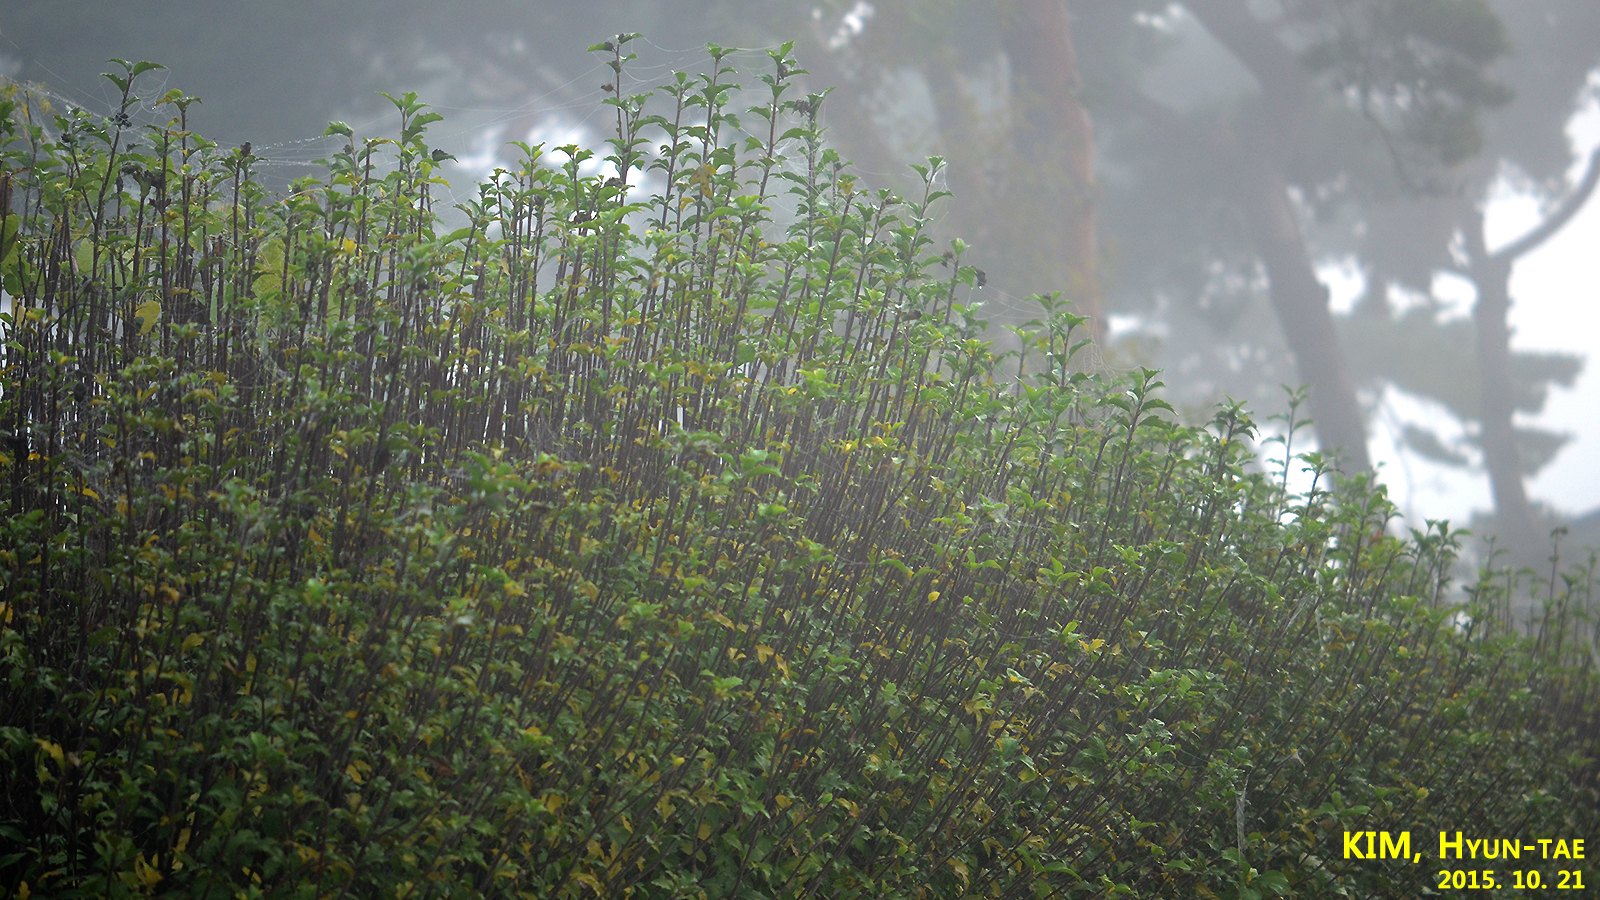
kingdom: Plantae
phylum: Tracheophyta
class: Magnoliopsida
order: Malvales
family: Malvaceae
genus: Hibiscus
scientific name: Hibiscus syriacus
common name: Syrian ketmia
